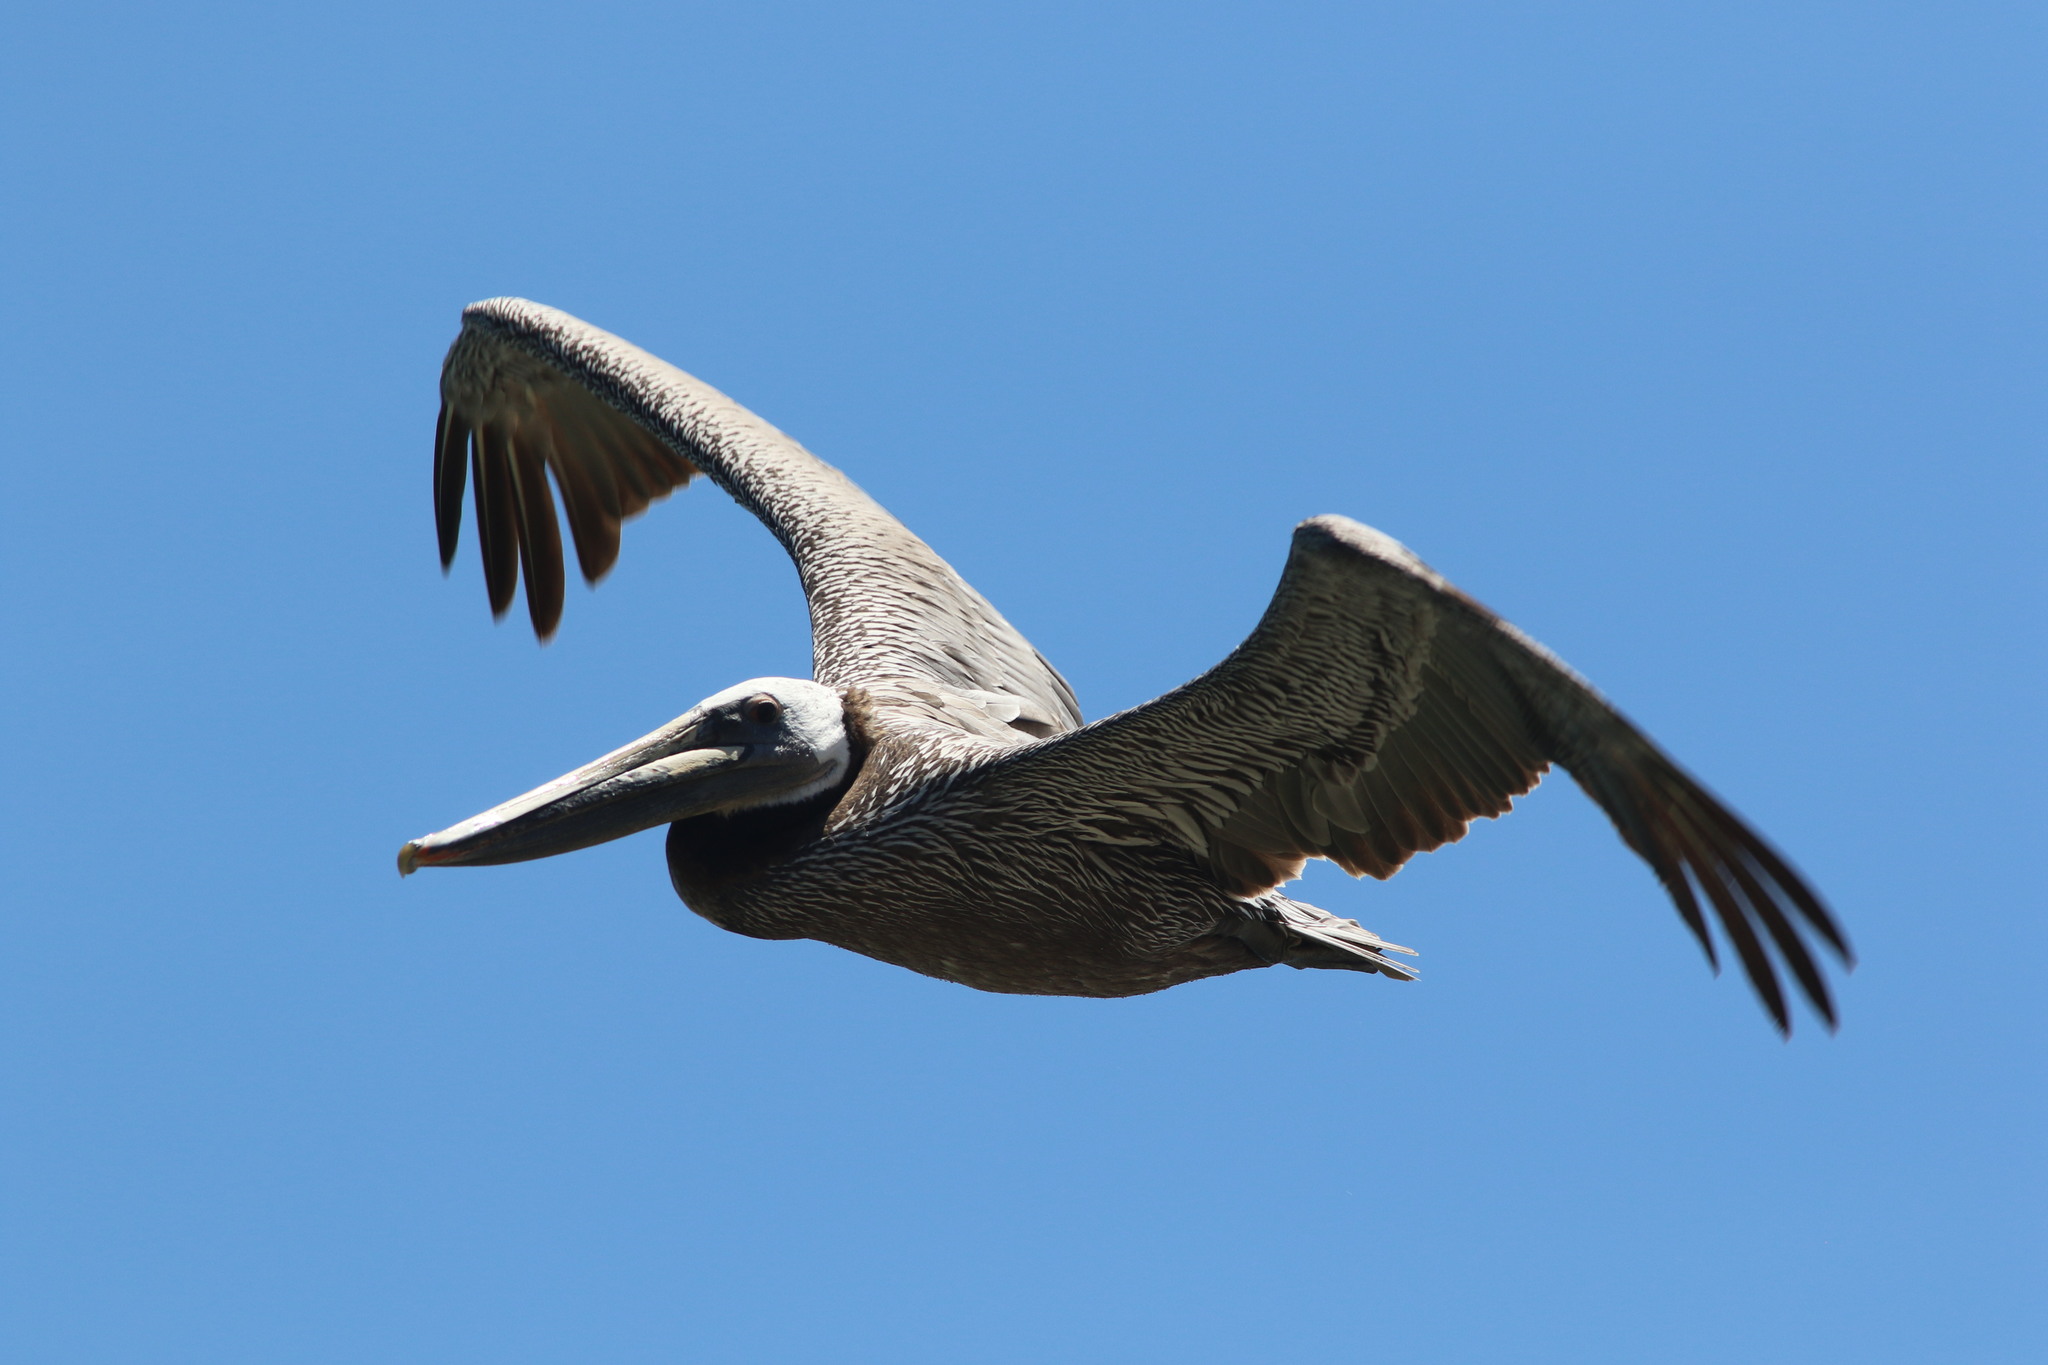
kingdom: Animalia
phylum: Chordata
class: Aves
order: Pelecaniformes
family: Pelecanidae
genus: Pelecanus
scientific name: Pelecanus occidentalis
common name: Brown pelican
